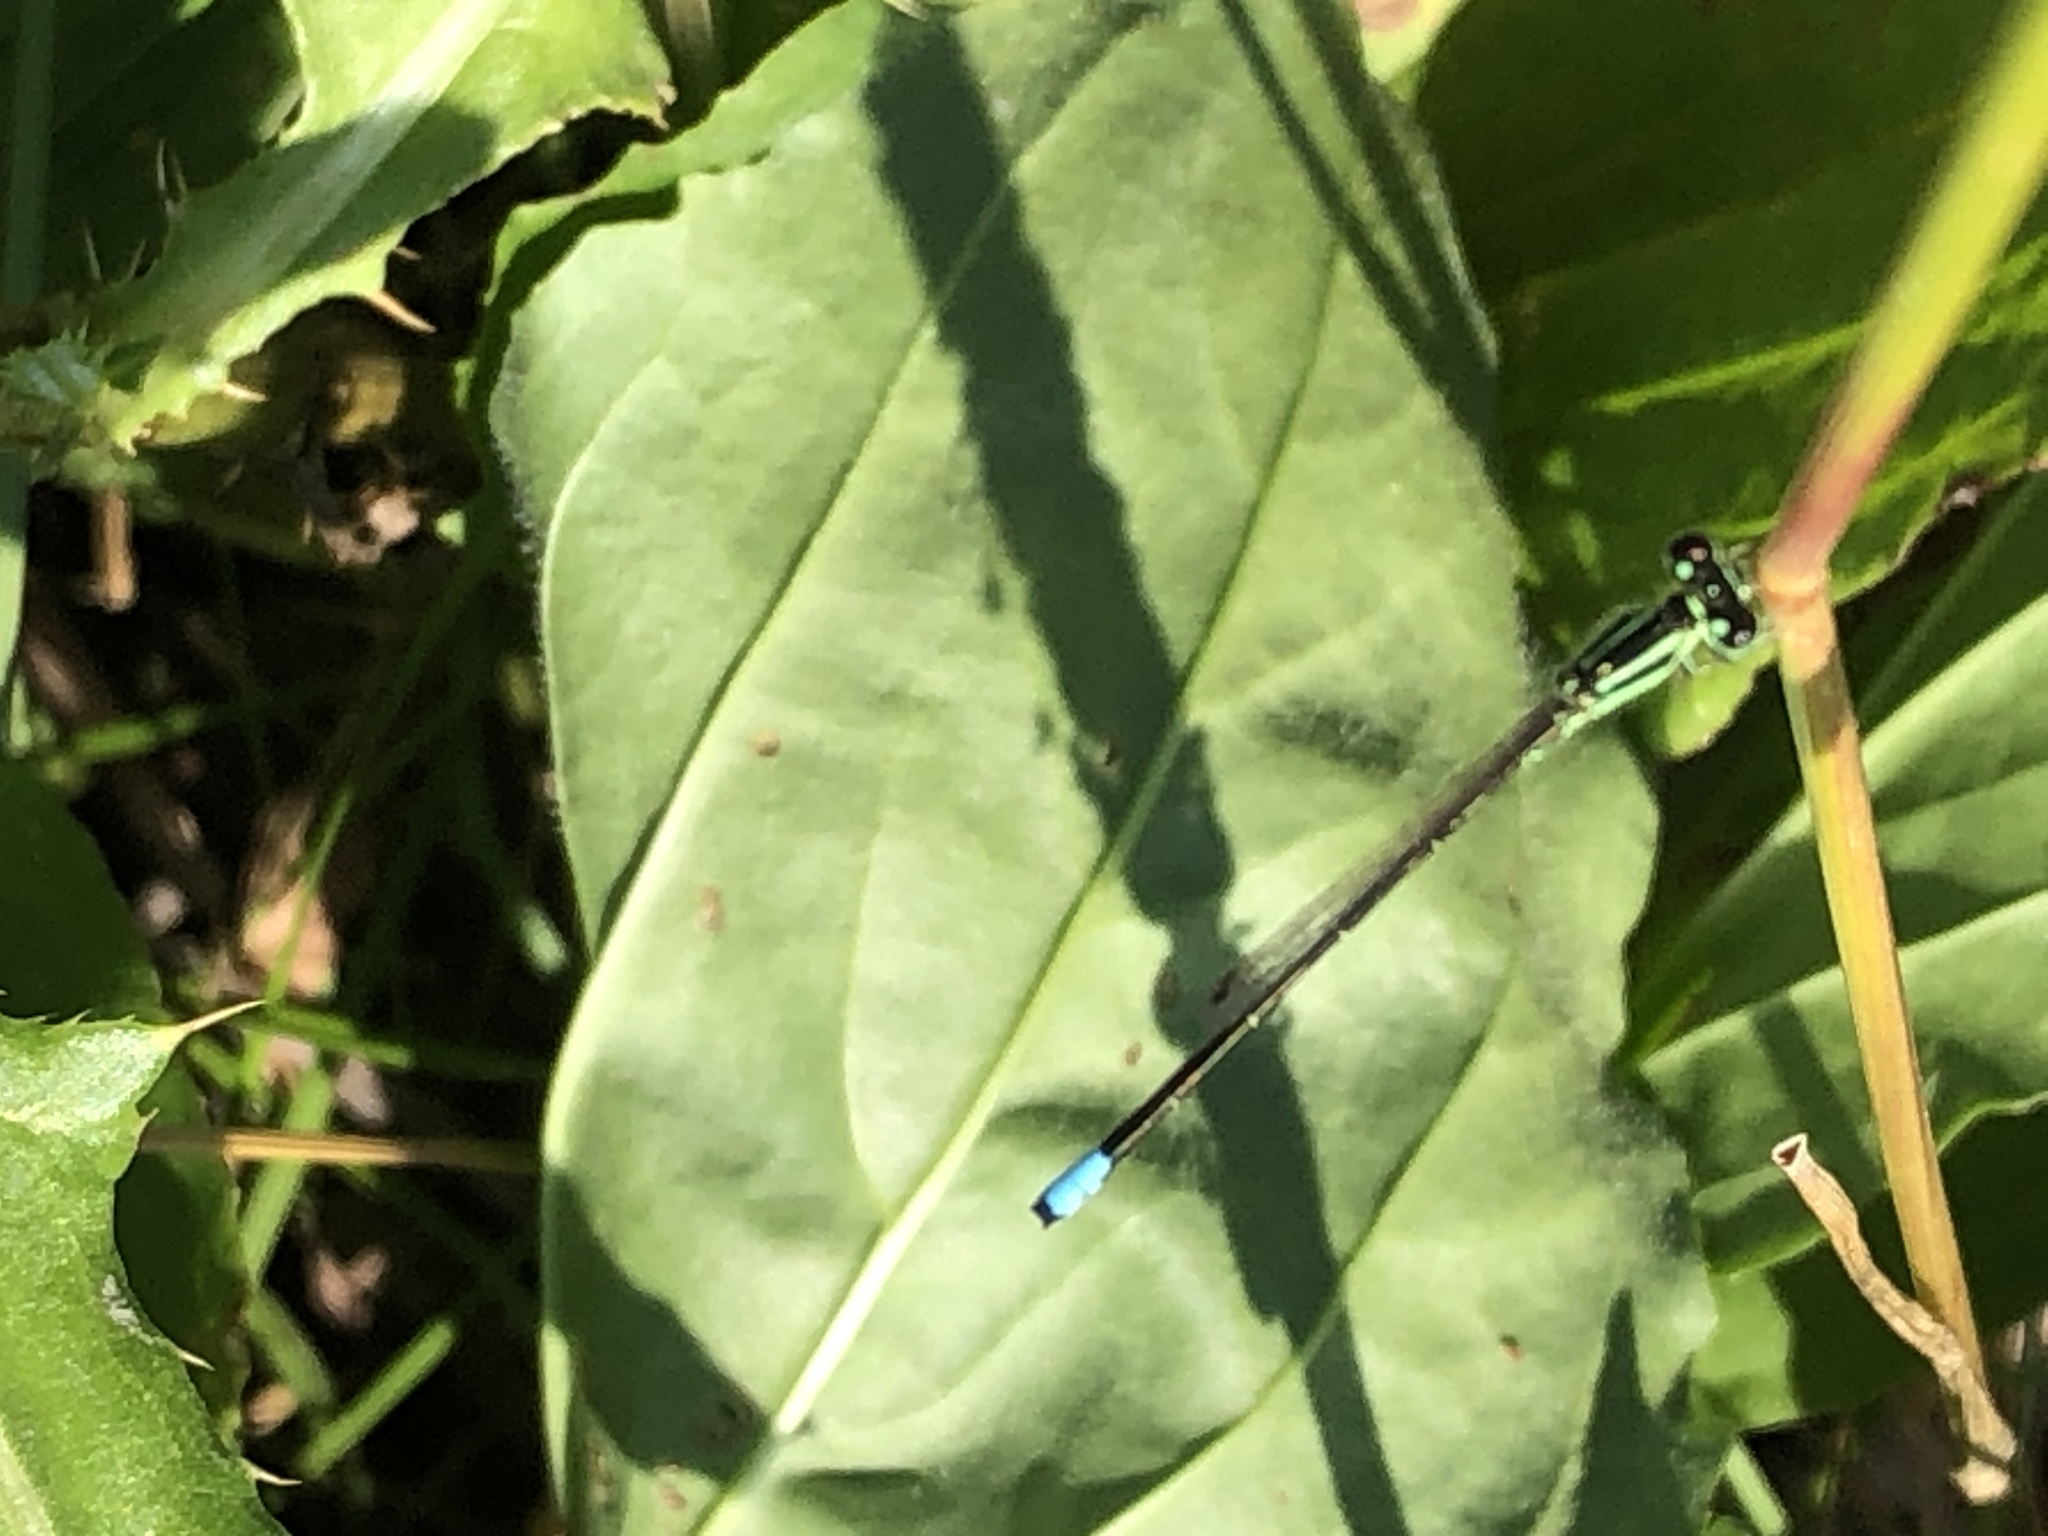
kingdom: Animalia
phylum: Arthropoda
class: Insecta
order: Odonata
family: Coenagrionidae
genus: Ischnura
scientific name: Ischnura verticalis
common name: Eastern forktail
